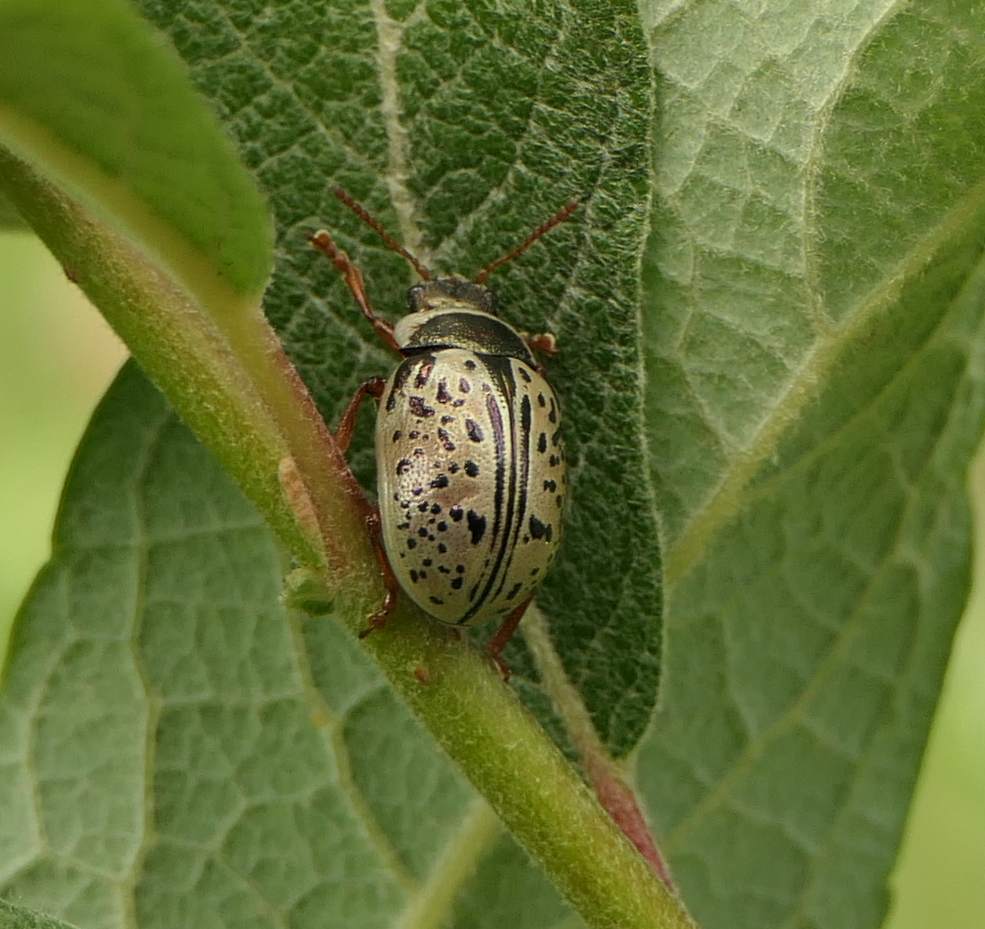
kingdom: Animalia
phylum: Arthropoda
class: Insecta
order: Coleoptera
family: Chrysomelidae
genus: Calligrapha
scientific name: Calligrapha multipunctata
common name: Common willow calligrapher beetle
